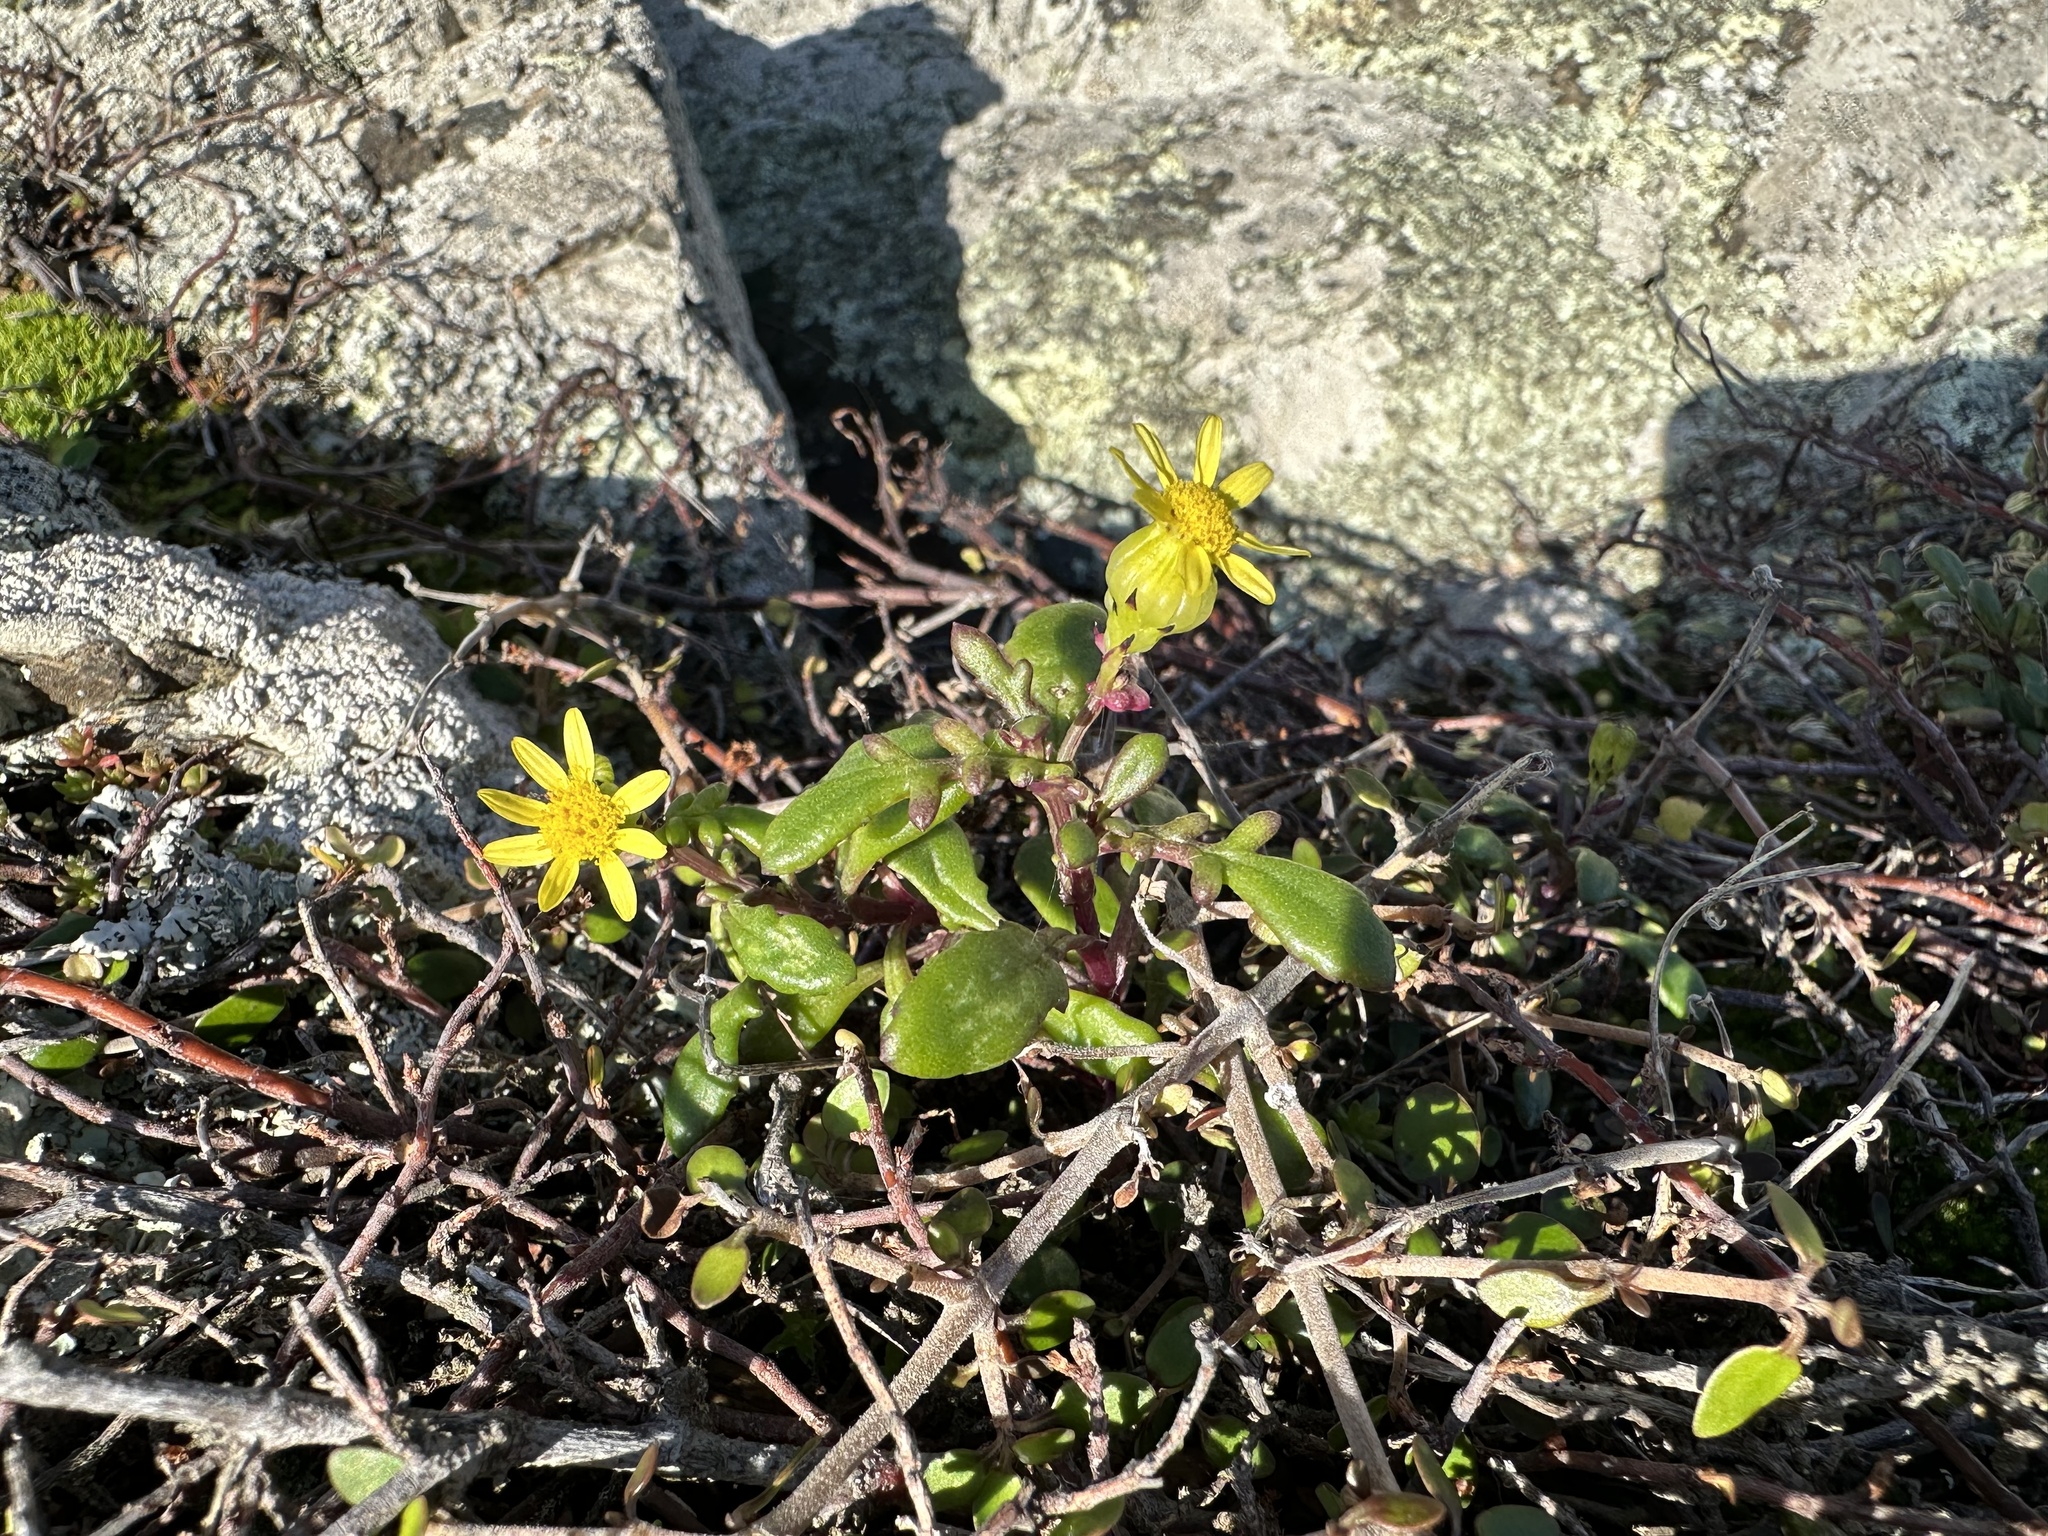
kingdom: Plantae
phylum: Tracheophyta
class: Magnoliopsida
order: Asterales
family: Asteraceae
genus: Senecio
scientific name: Senecio lautus
